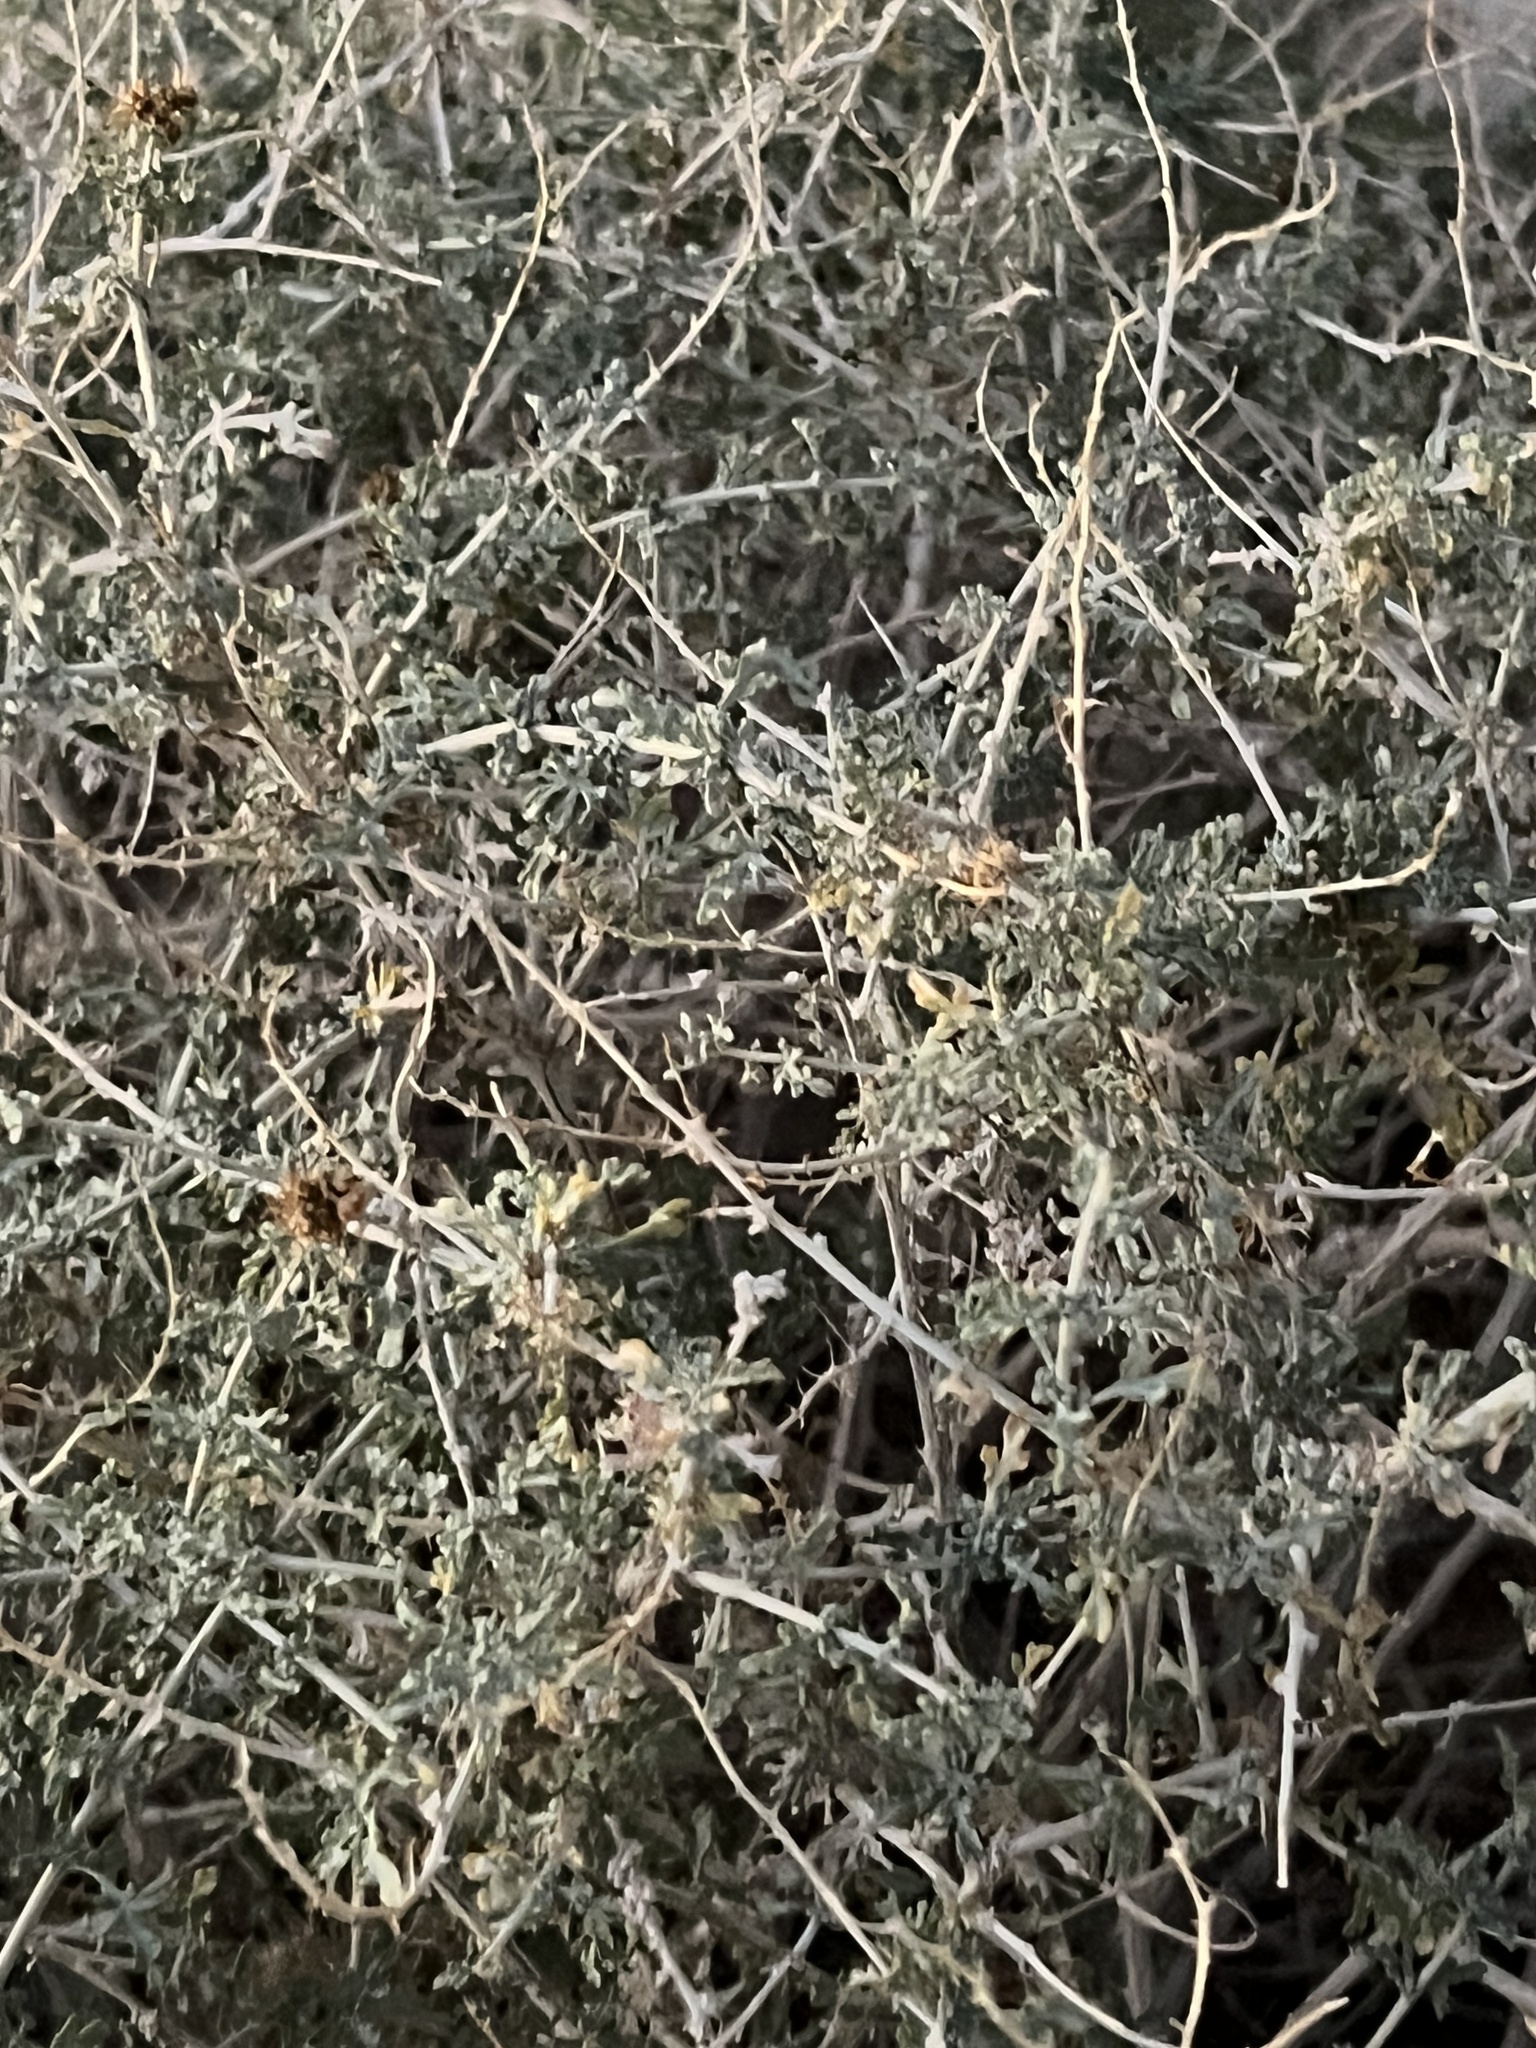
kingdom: Plantae
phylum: Tracheophyta
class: Magnoliopsida
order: Asterales
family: Asteraceae
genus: Ambrosia
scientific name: Ambrosia dumosa
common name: Bur-sage
